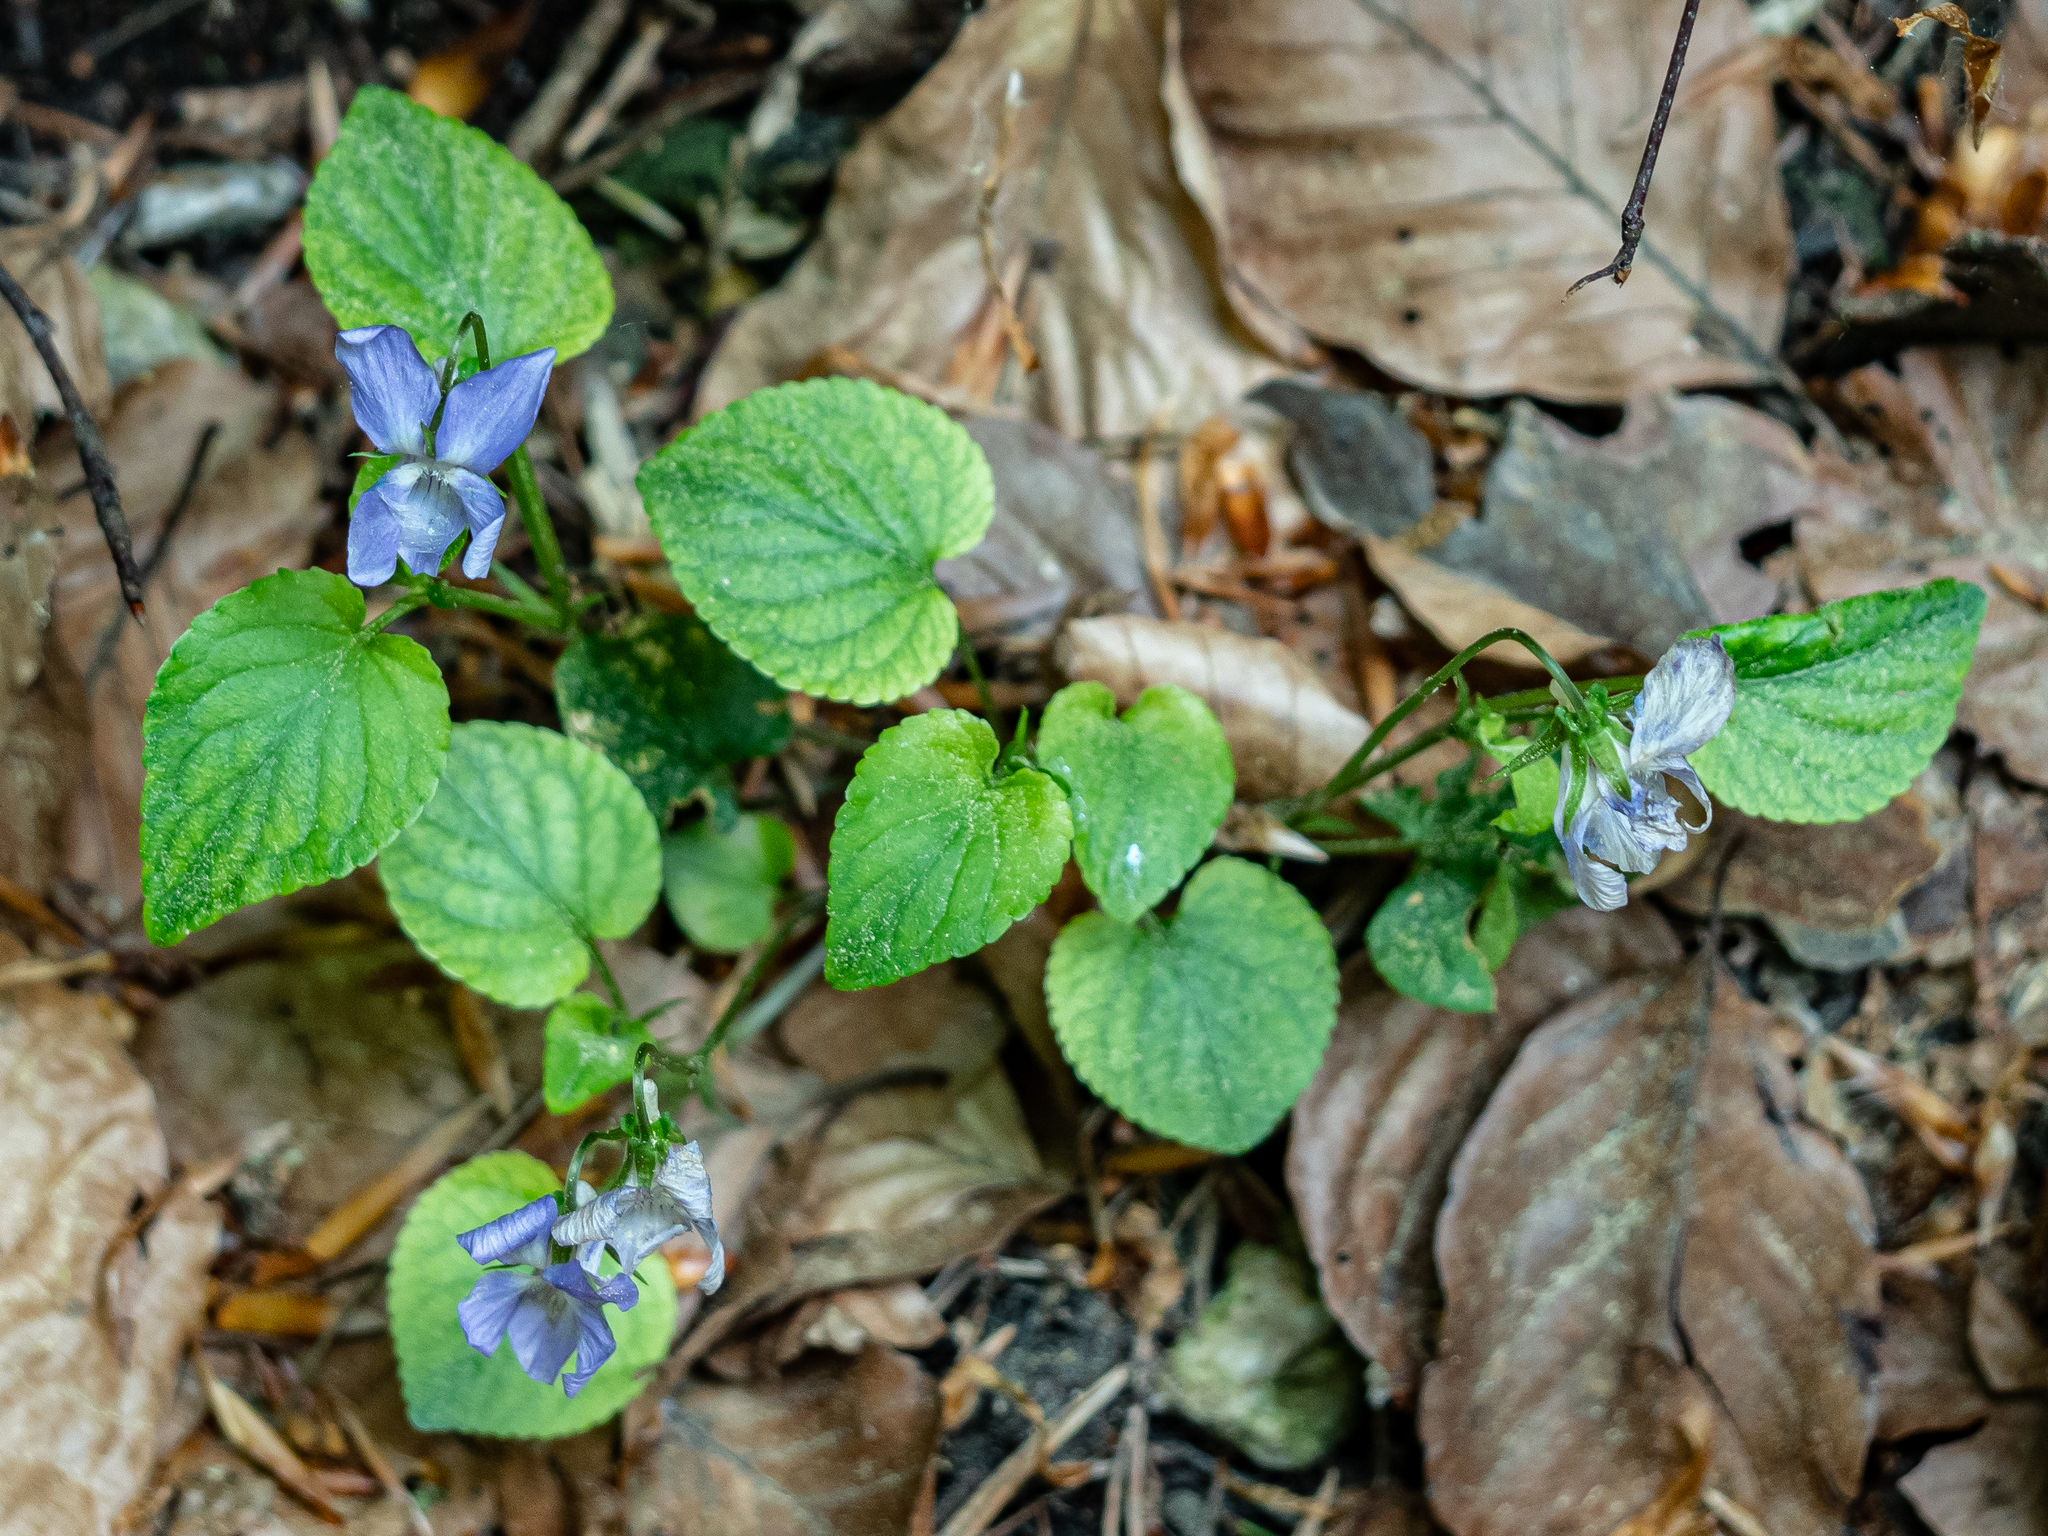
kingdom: Plantae
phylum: Tracheophyta
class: Magnoliopsida
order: Malpighiales
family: Violaceae
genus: Viola
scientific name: Viola riviniana
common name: Common dog-violet
